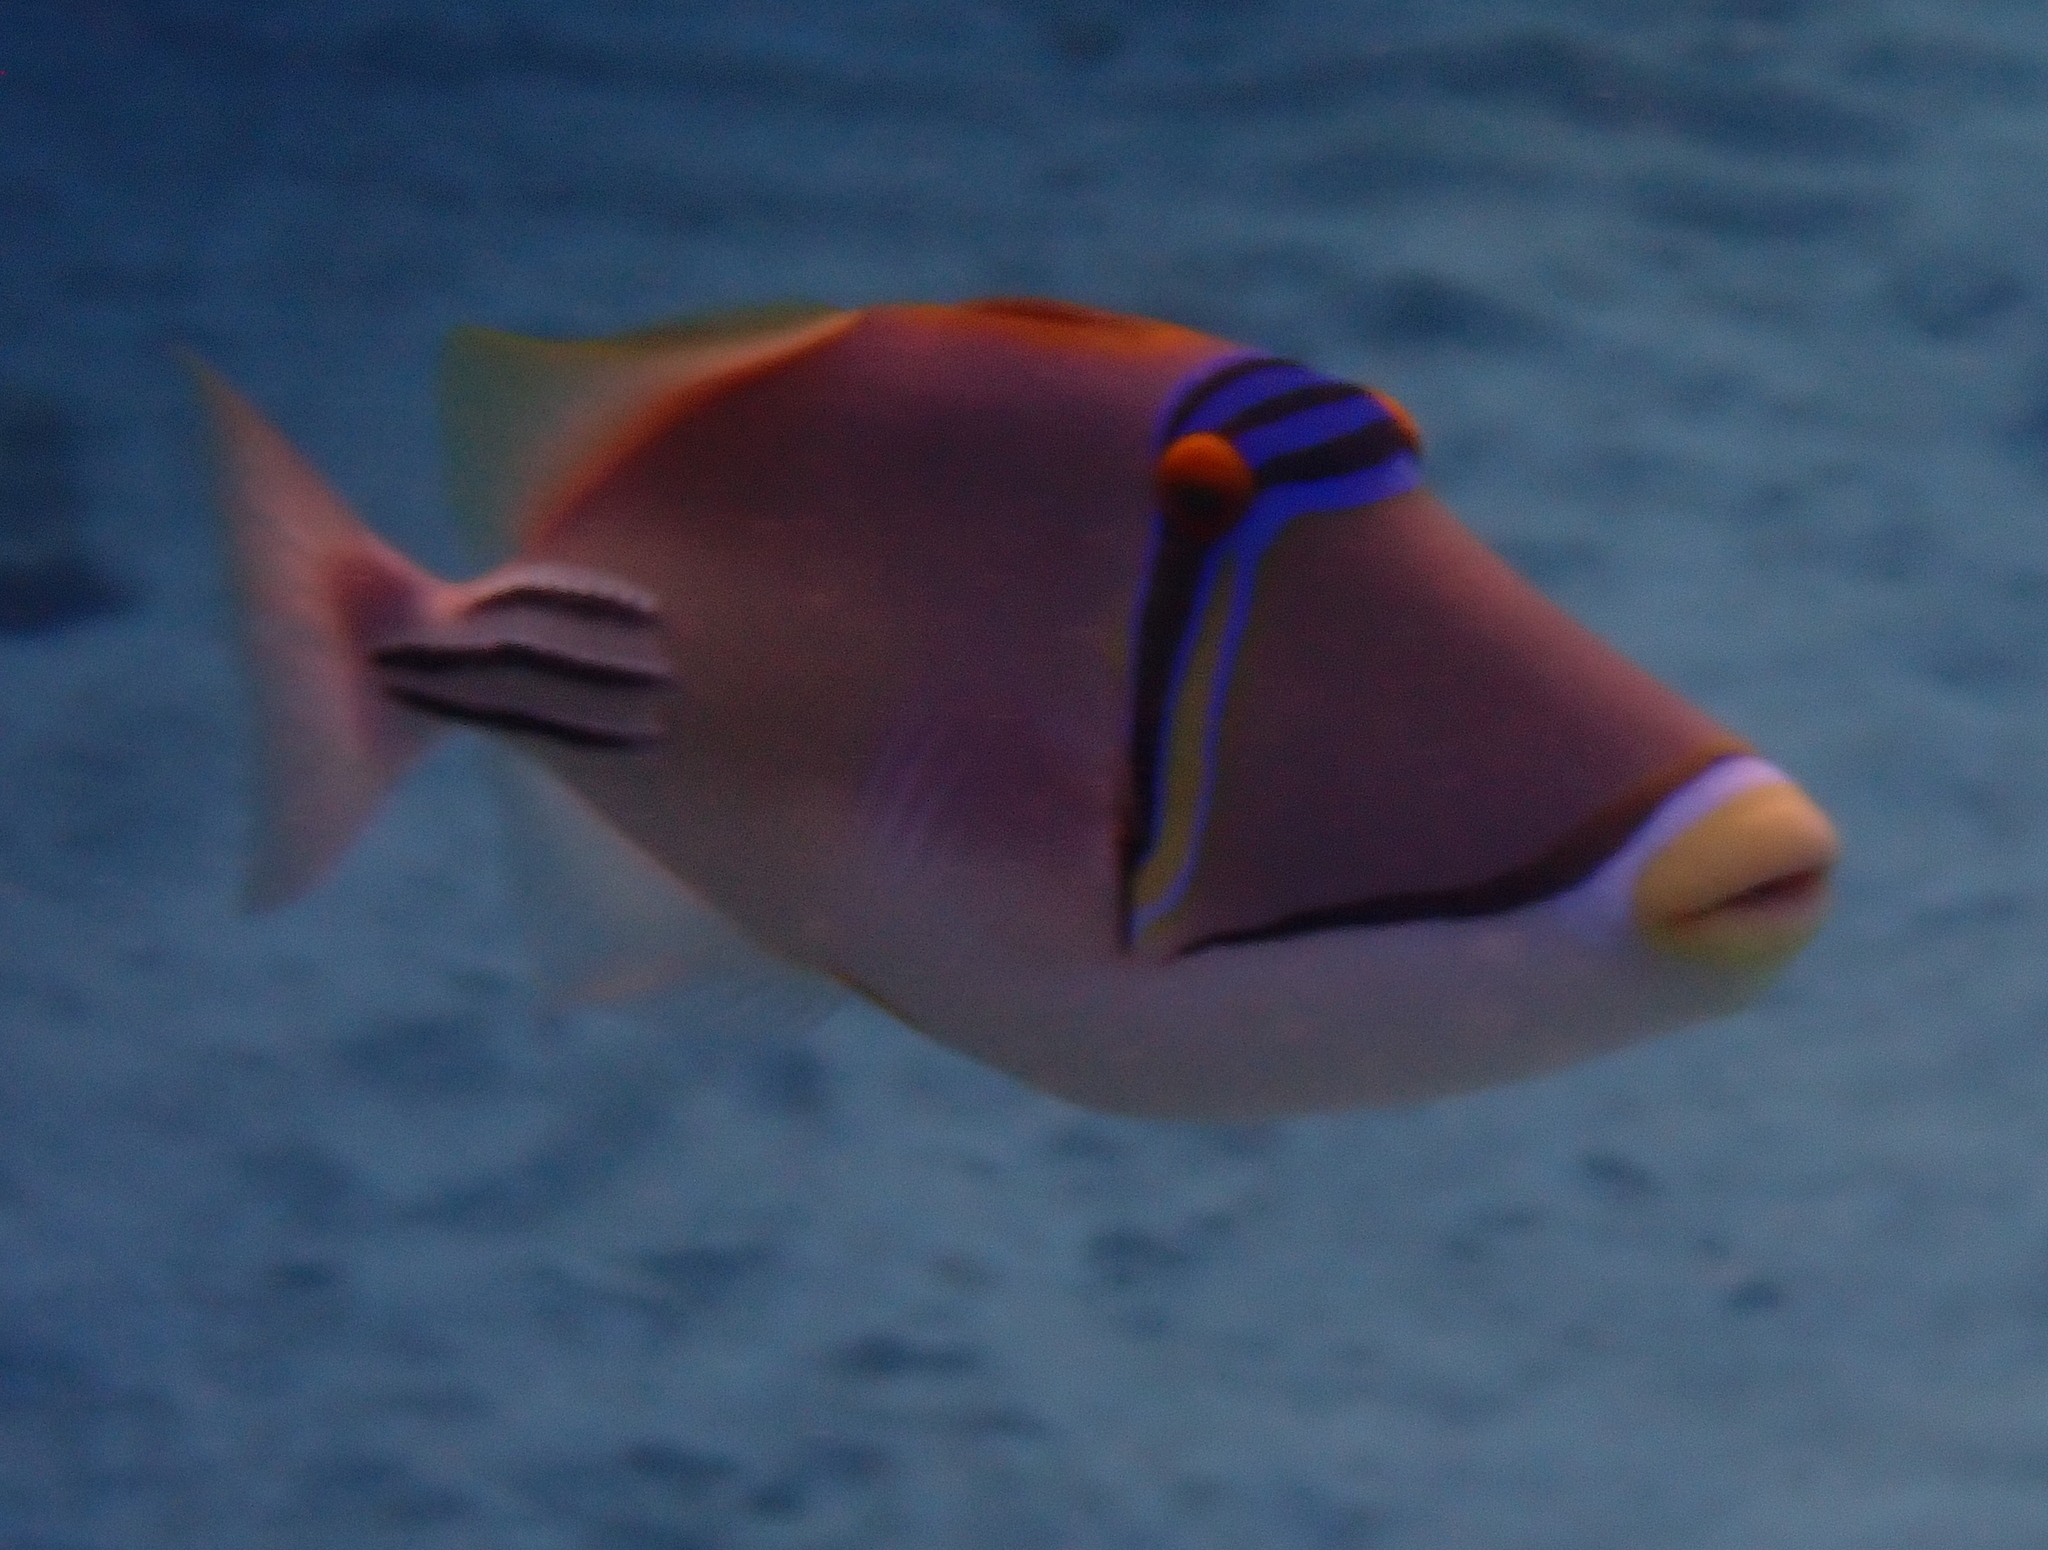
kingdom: Animalia
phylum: Chordata
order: Tetraodontiformes
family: Balistidae
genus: Rhinecanthus
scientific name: Rhinecanthus assasi
